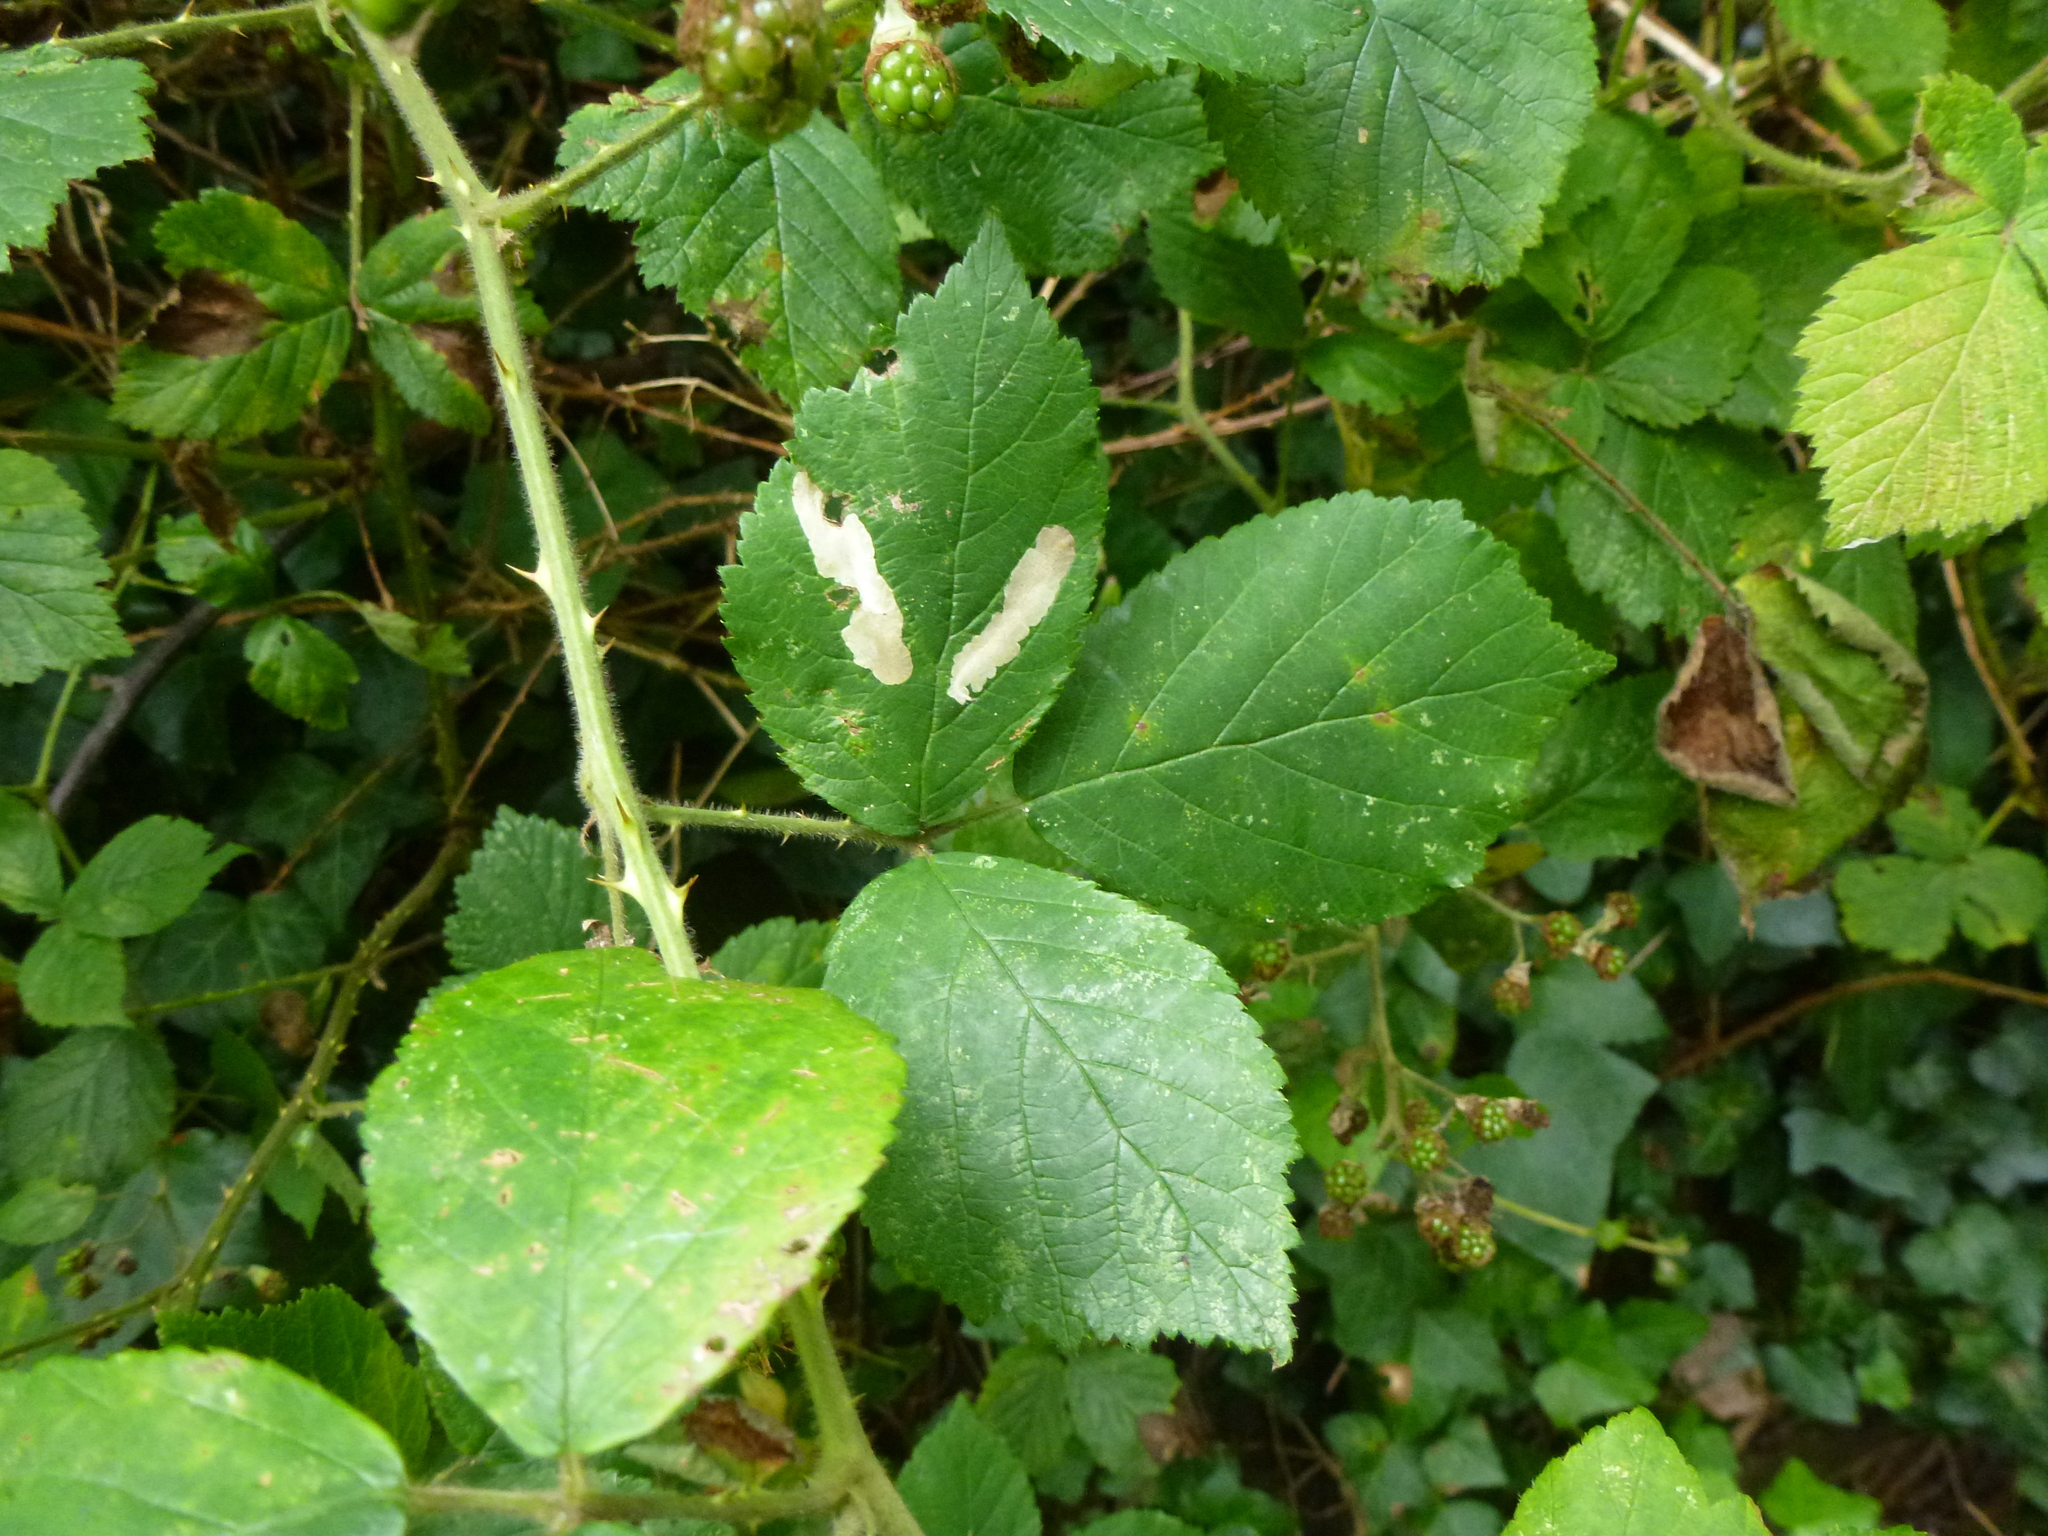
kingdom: Animalia
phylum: Arthropoda
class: Insecta
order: Lepidoptera
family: Tischeriidae
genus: Coptotriche
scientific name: Coptotriche marginea
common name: Bordered carl
